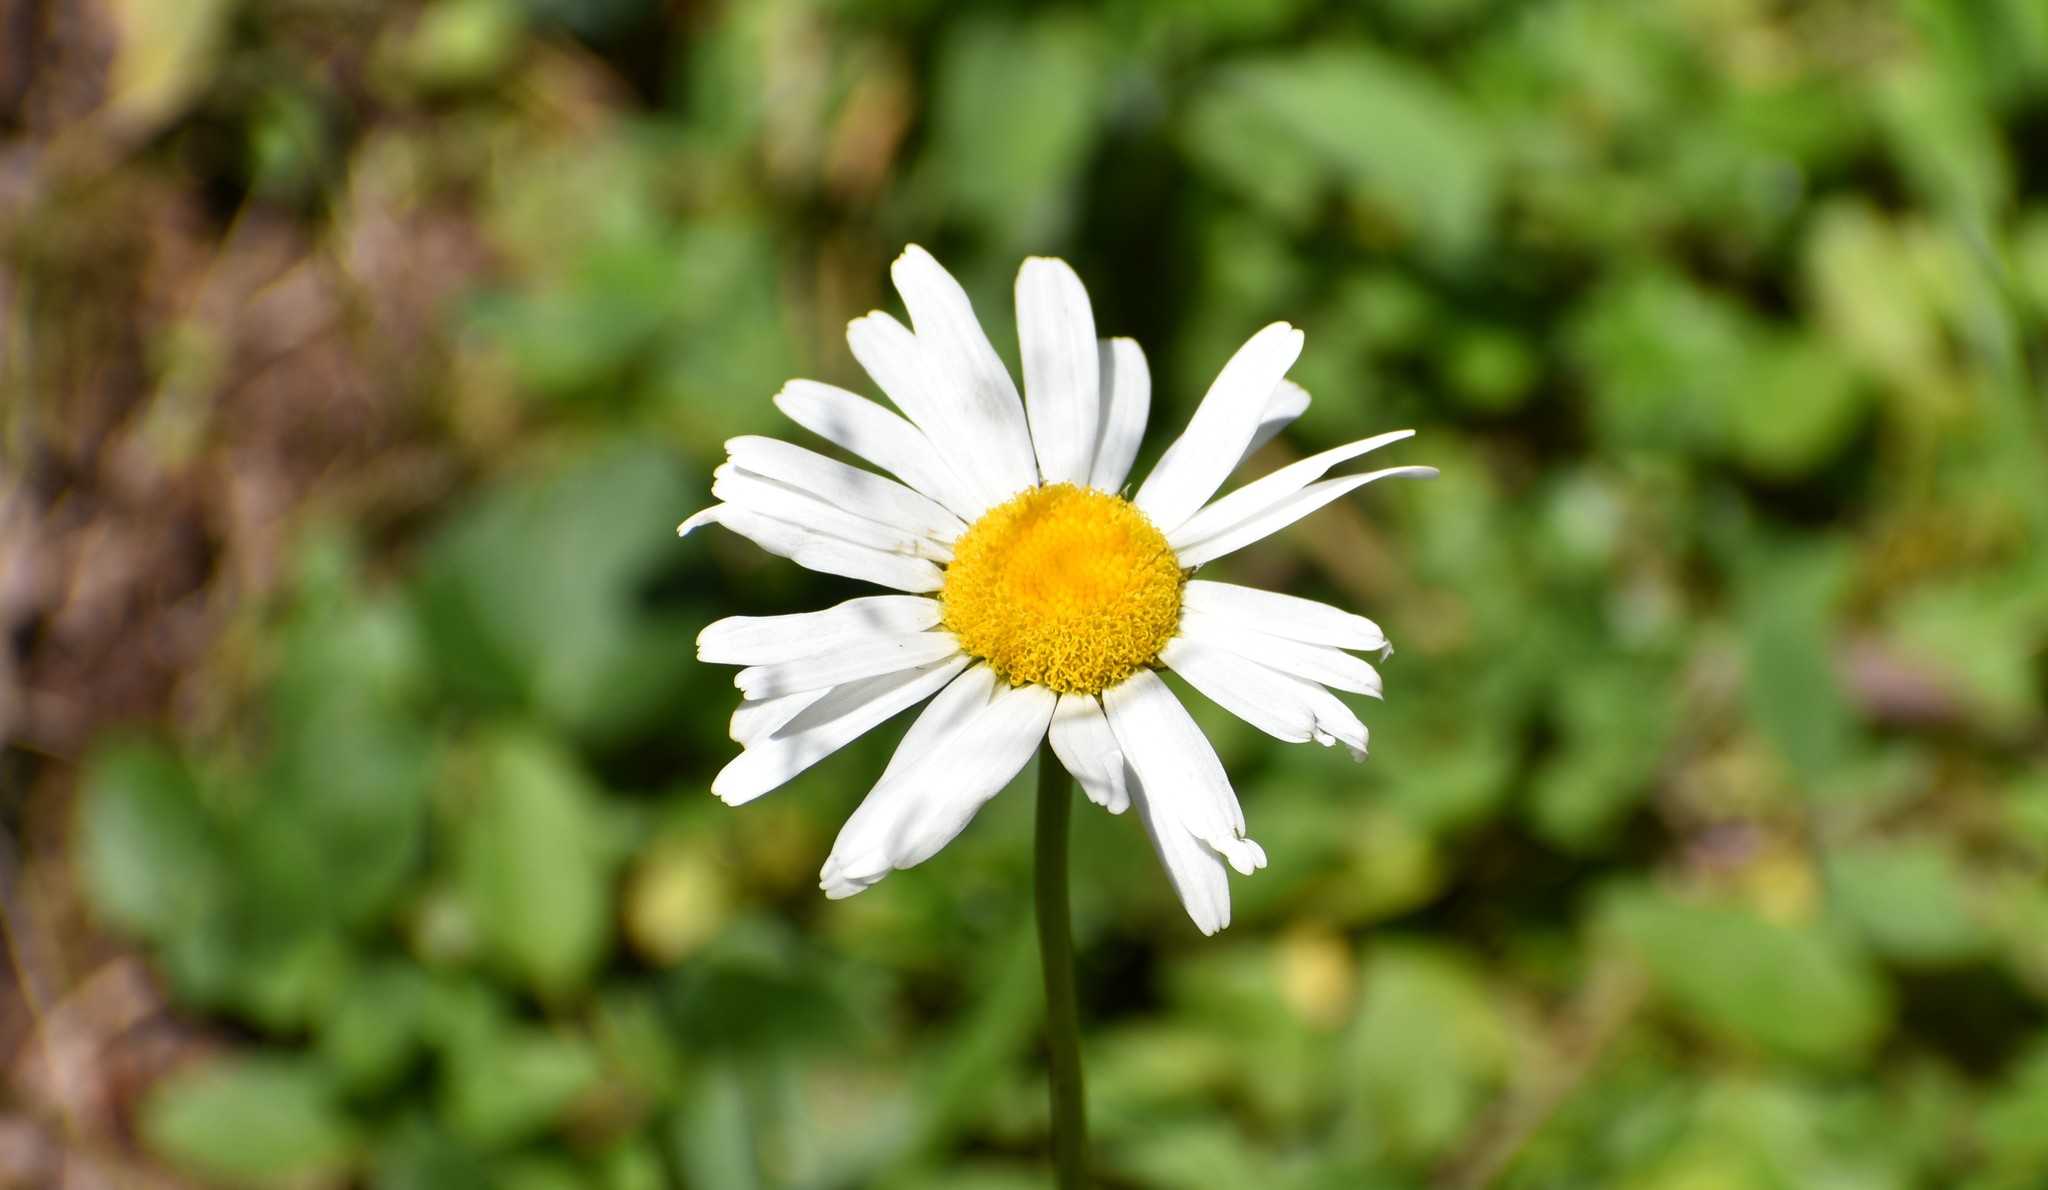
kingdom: Plantae
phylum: Tracheophyta
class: Magnoliopsida
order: Asterales
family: Asteraceae
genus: Leucanthemum
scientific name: Leucanthemum vulgare
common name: Oxeye daisy
